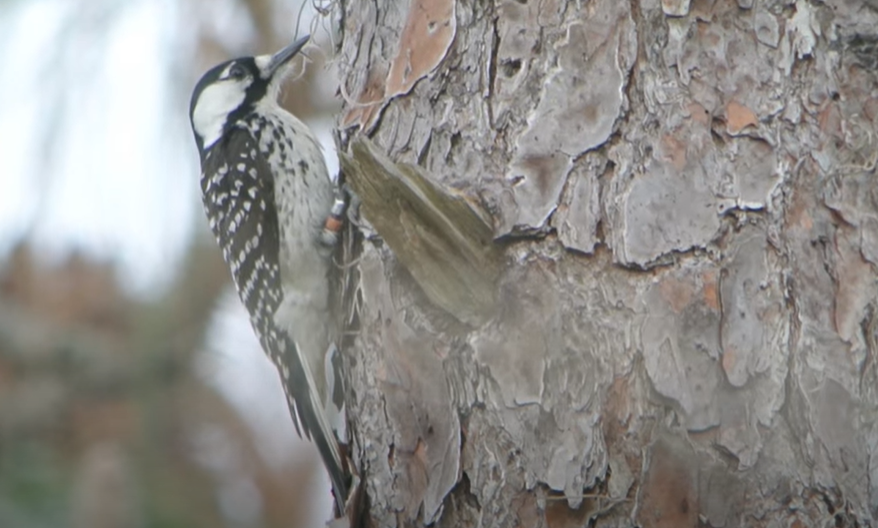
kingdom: Animalia
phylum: Chordata
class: Aves
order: Piciformes
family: Picidae
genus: Leuconotopicus
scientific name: Leuconotopicus borealis
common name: Red-cockaded woodpecker
